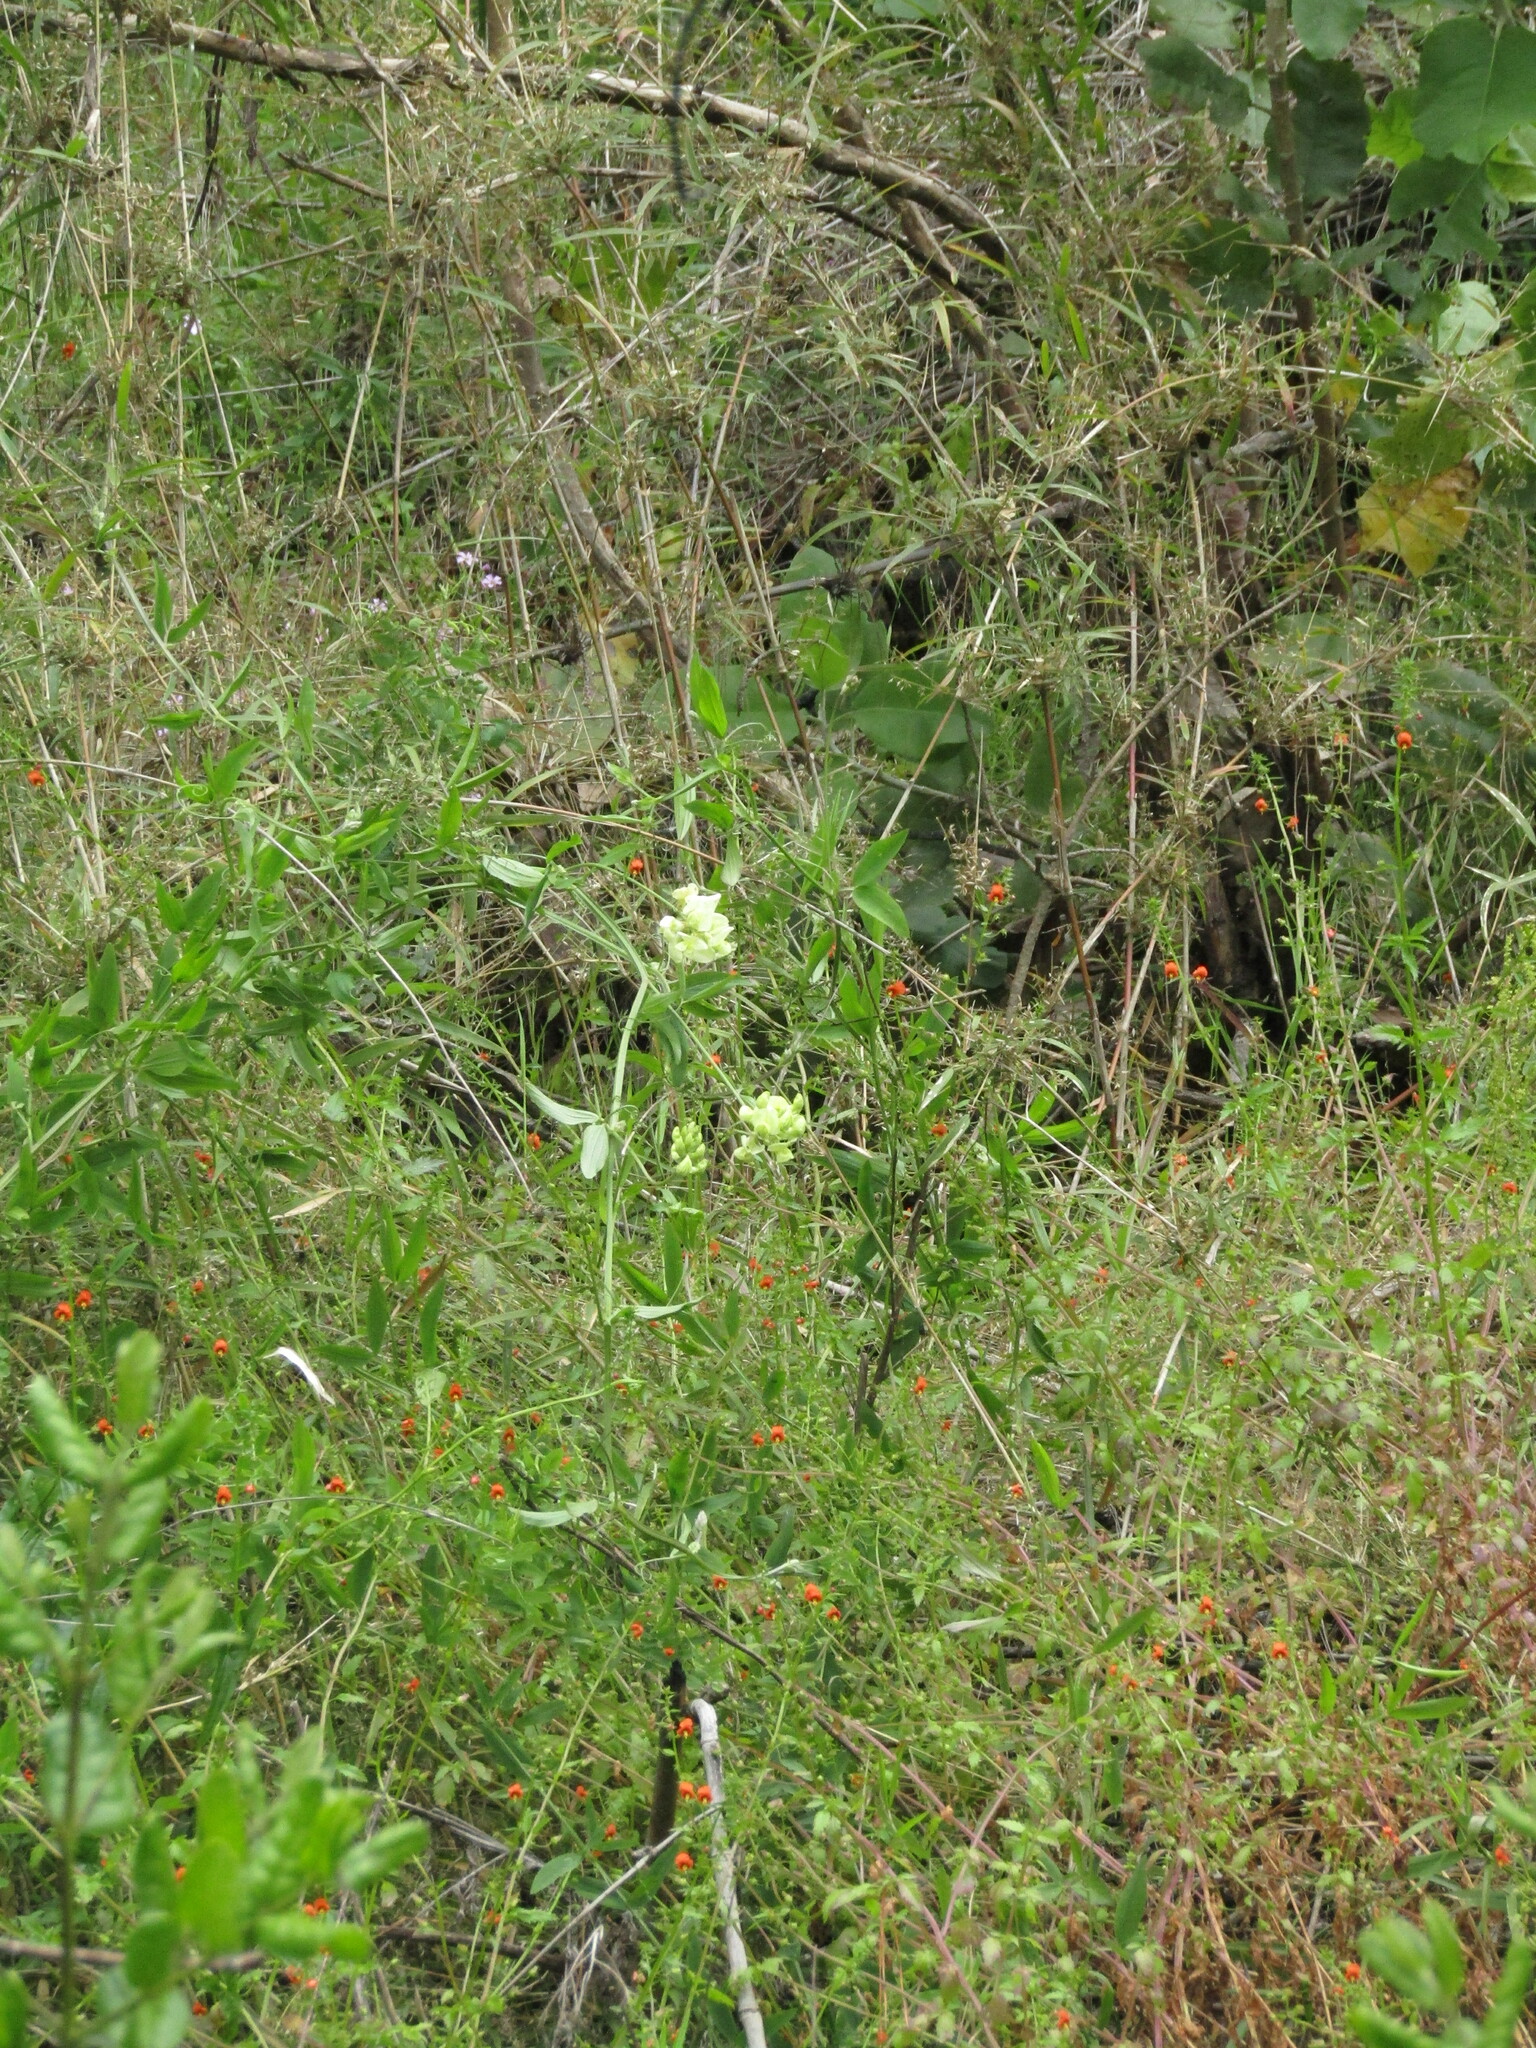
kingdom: Plantae
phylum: Tracheophyta
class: Magnoliopsida
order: Fabales
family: Fabaceae
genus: Lathyrus
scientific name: Lathyrus cabrerianus
